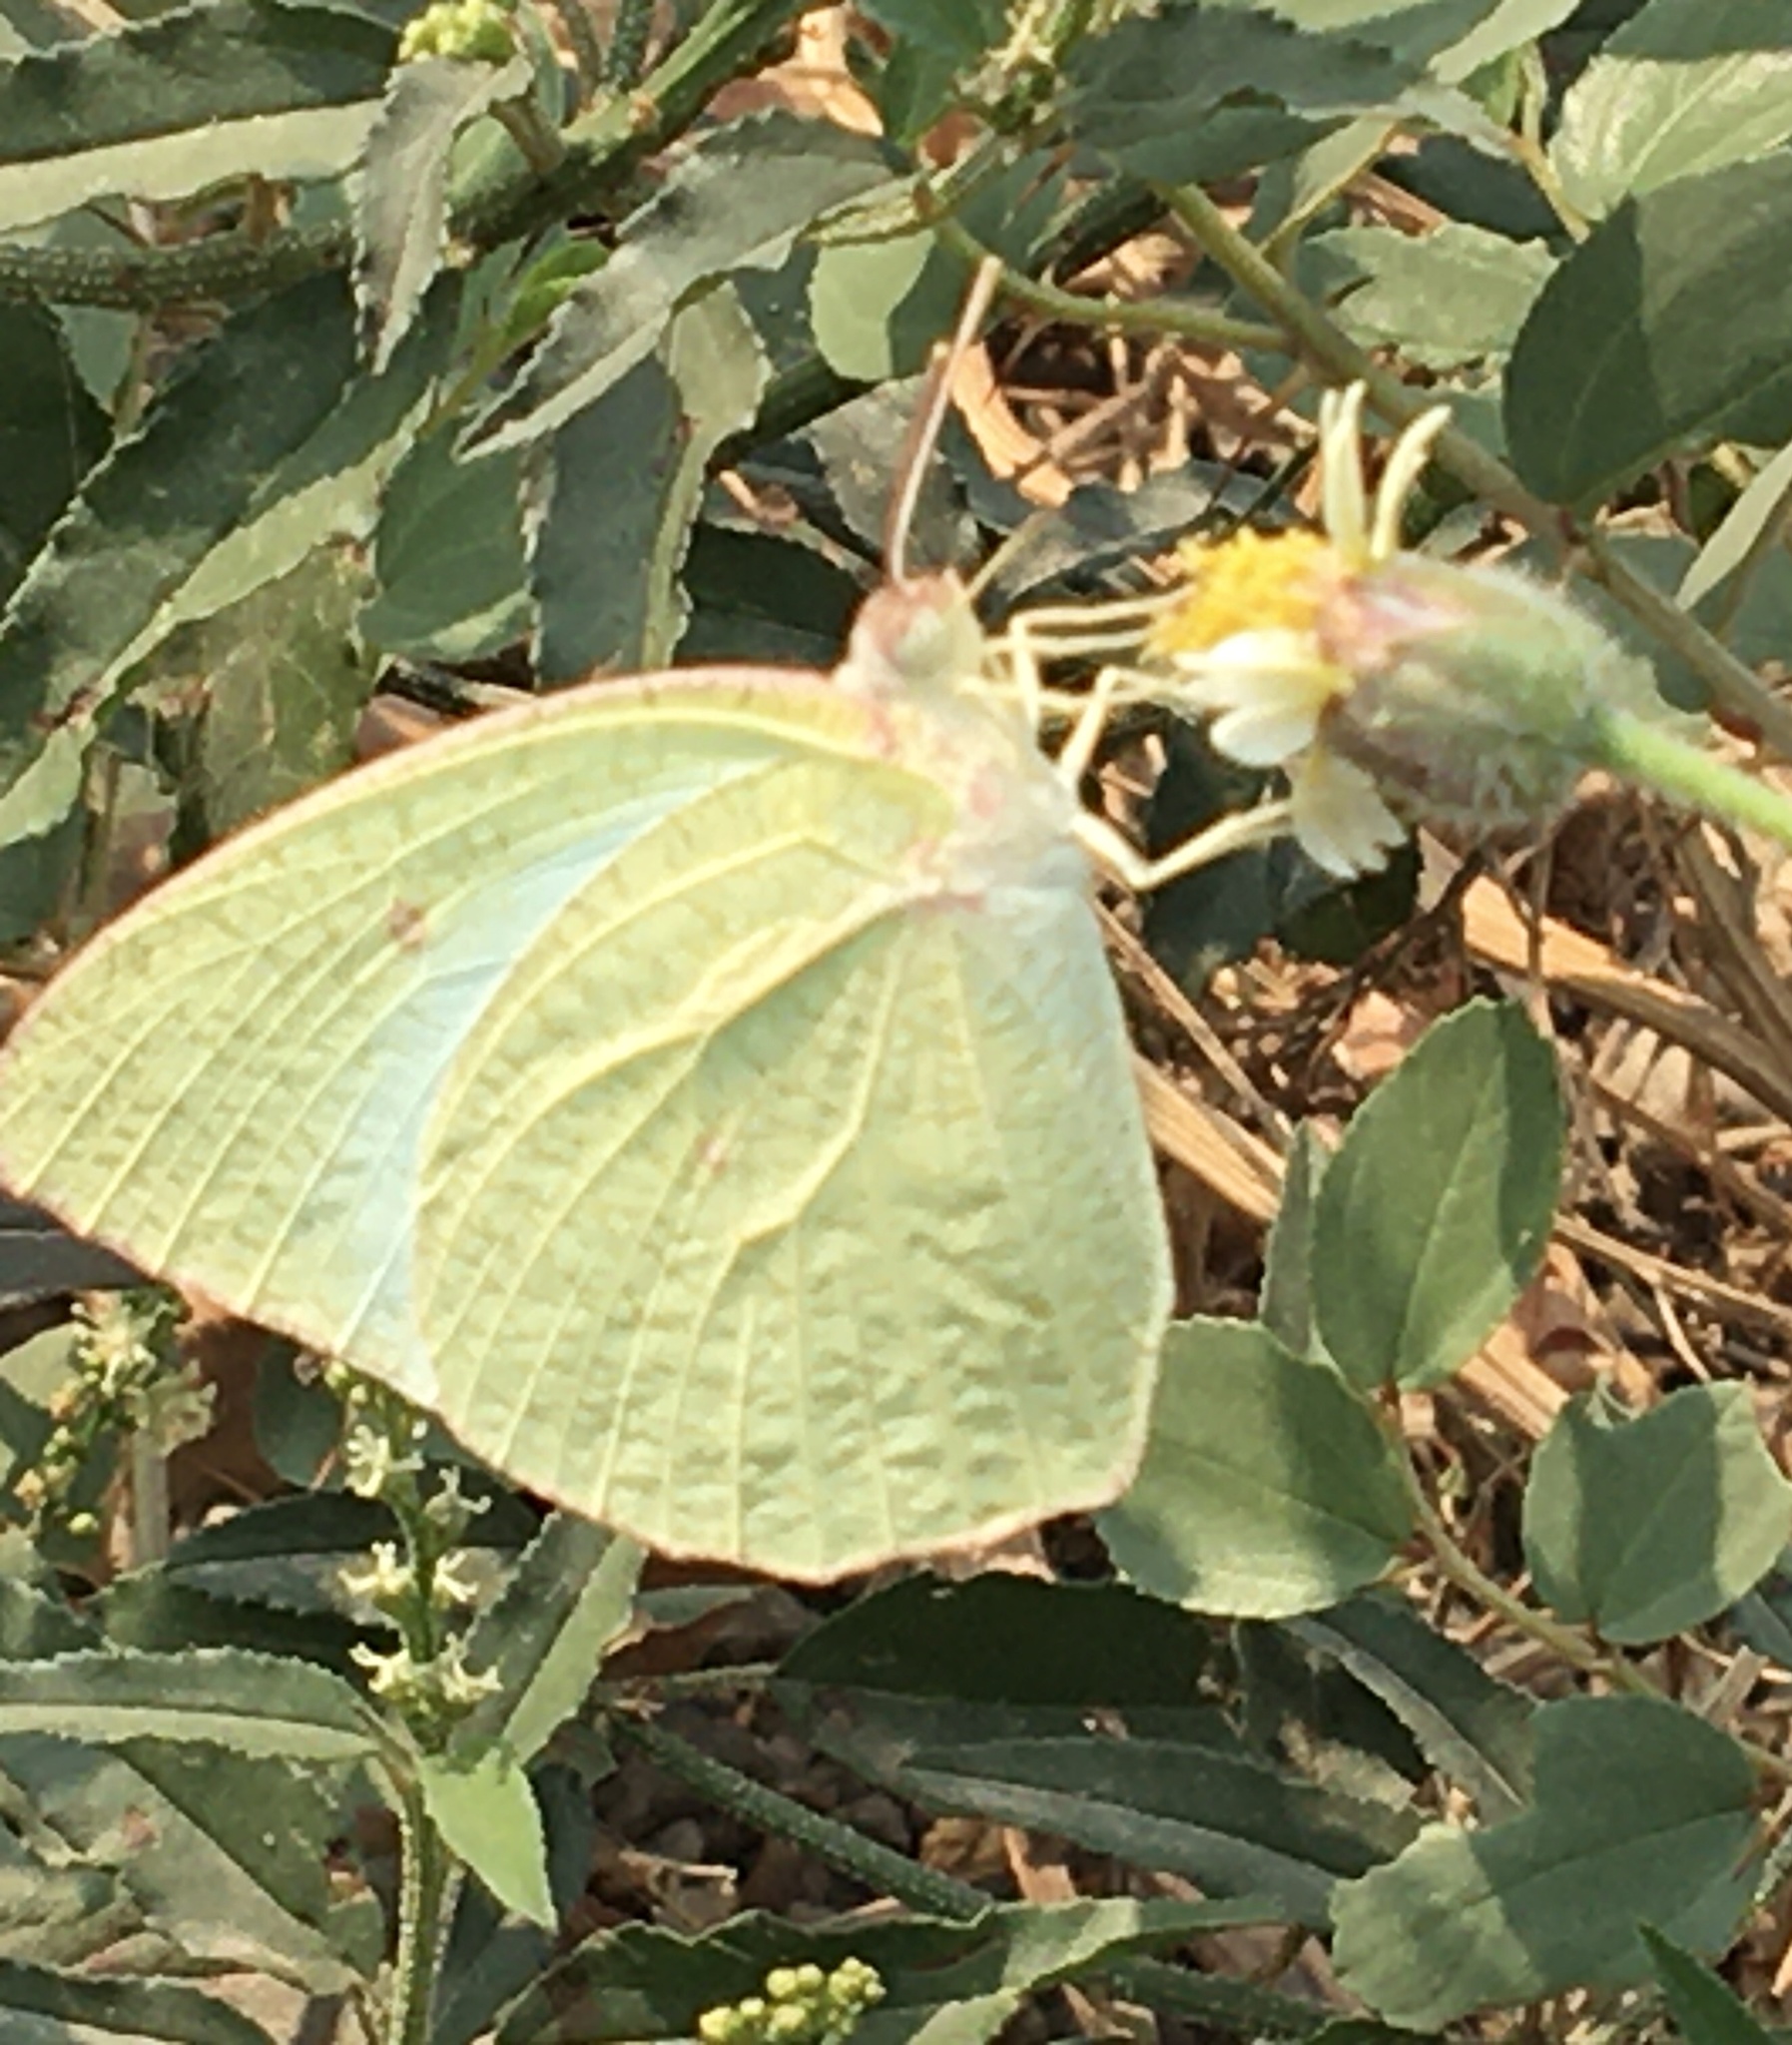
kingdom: Animalia
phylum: Arthropoda
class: Insecta
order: Lepidoptera
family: Pieridae
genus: Catopsilia
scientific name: Catopsilia pyranthe
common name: Mottled emigrant
